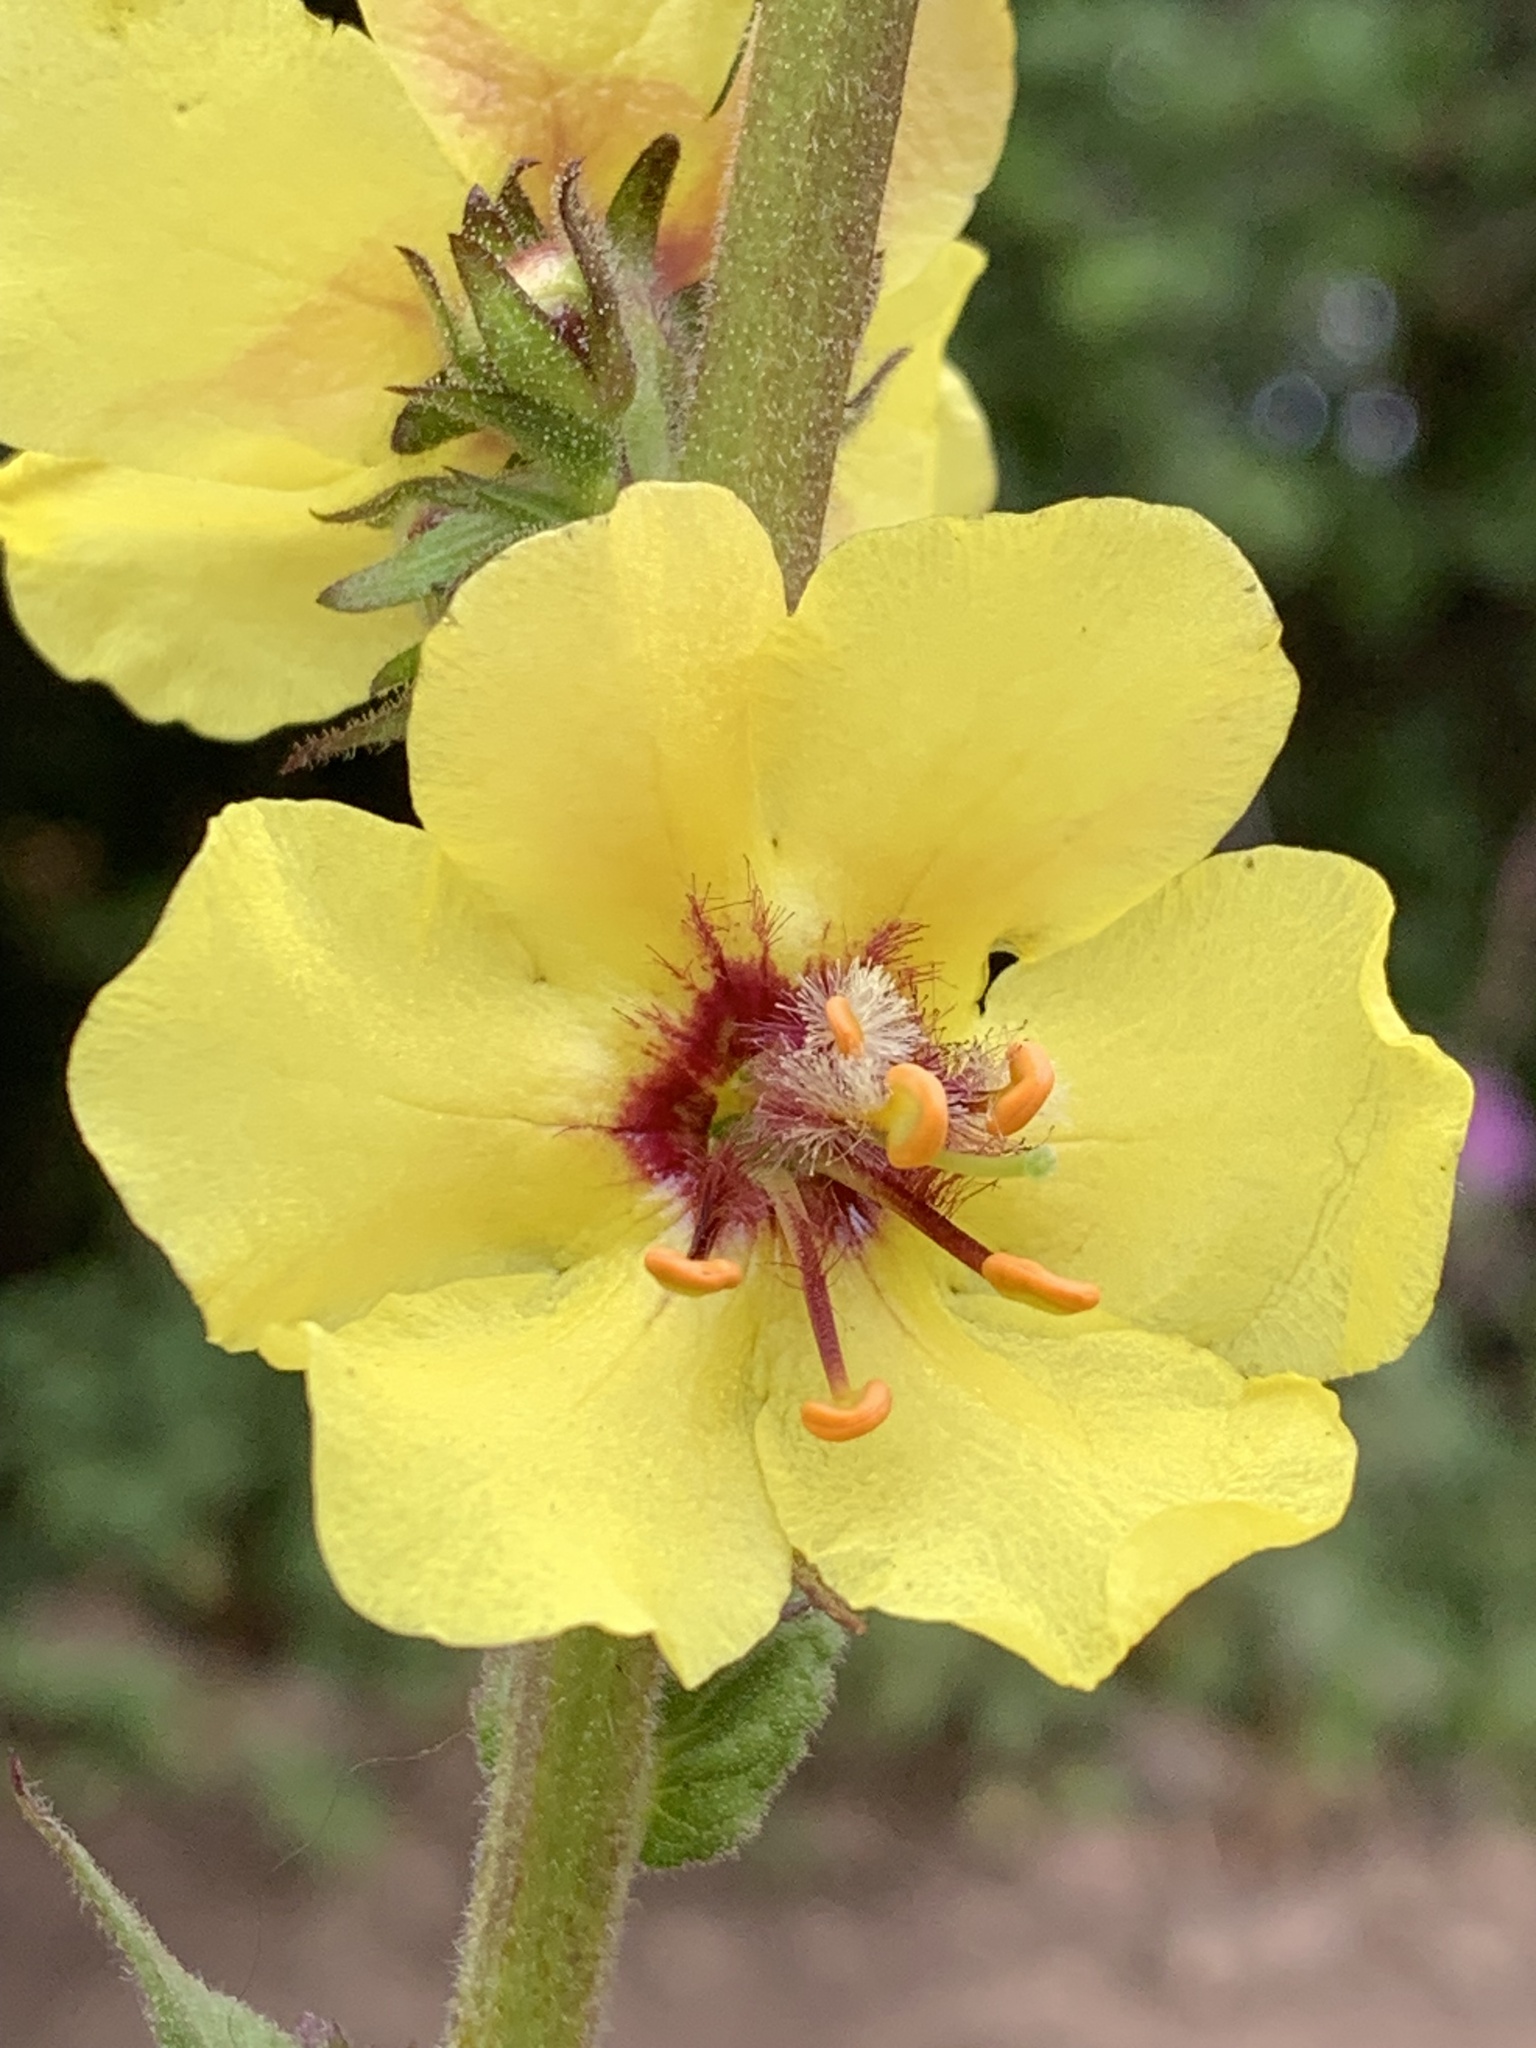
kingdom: Plantae
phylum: Tracheophyta
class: Magnoliopsida
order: Lamiales
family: Scrophulariaceae
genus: Verbascum
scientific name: Verbascum virgatum
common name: Twiggy mullein
